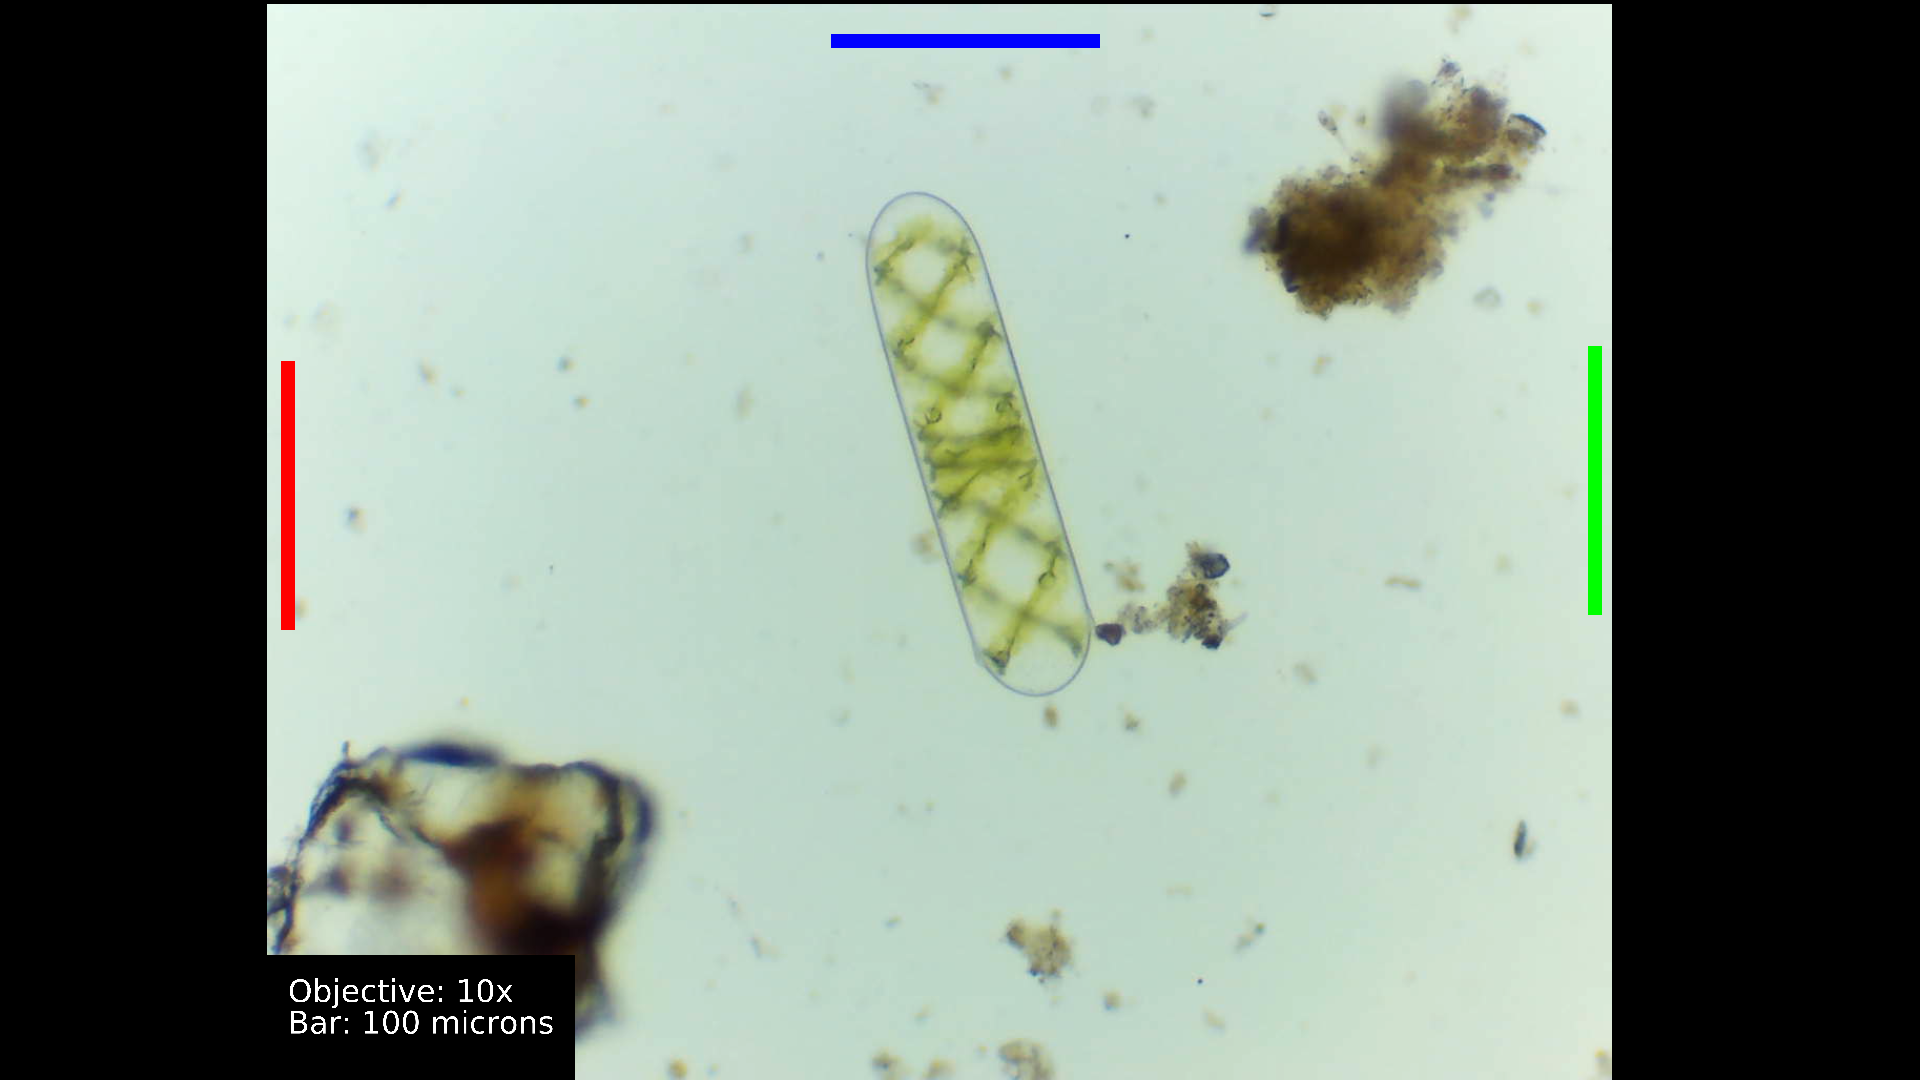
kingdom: Plantae
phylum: Charophyta
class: Zygnematophyceae
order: Zygnematales
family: Zygnemataceae
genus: Spirogyra
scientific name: Spirogyra
